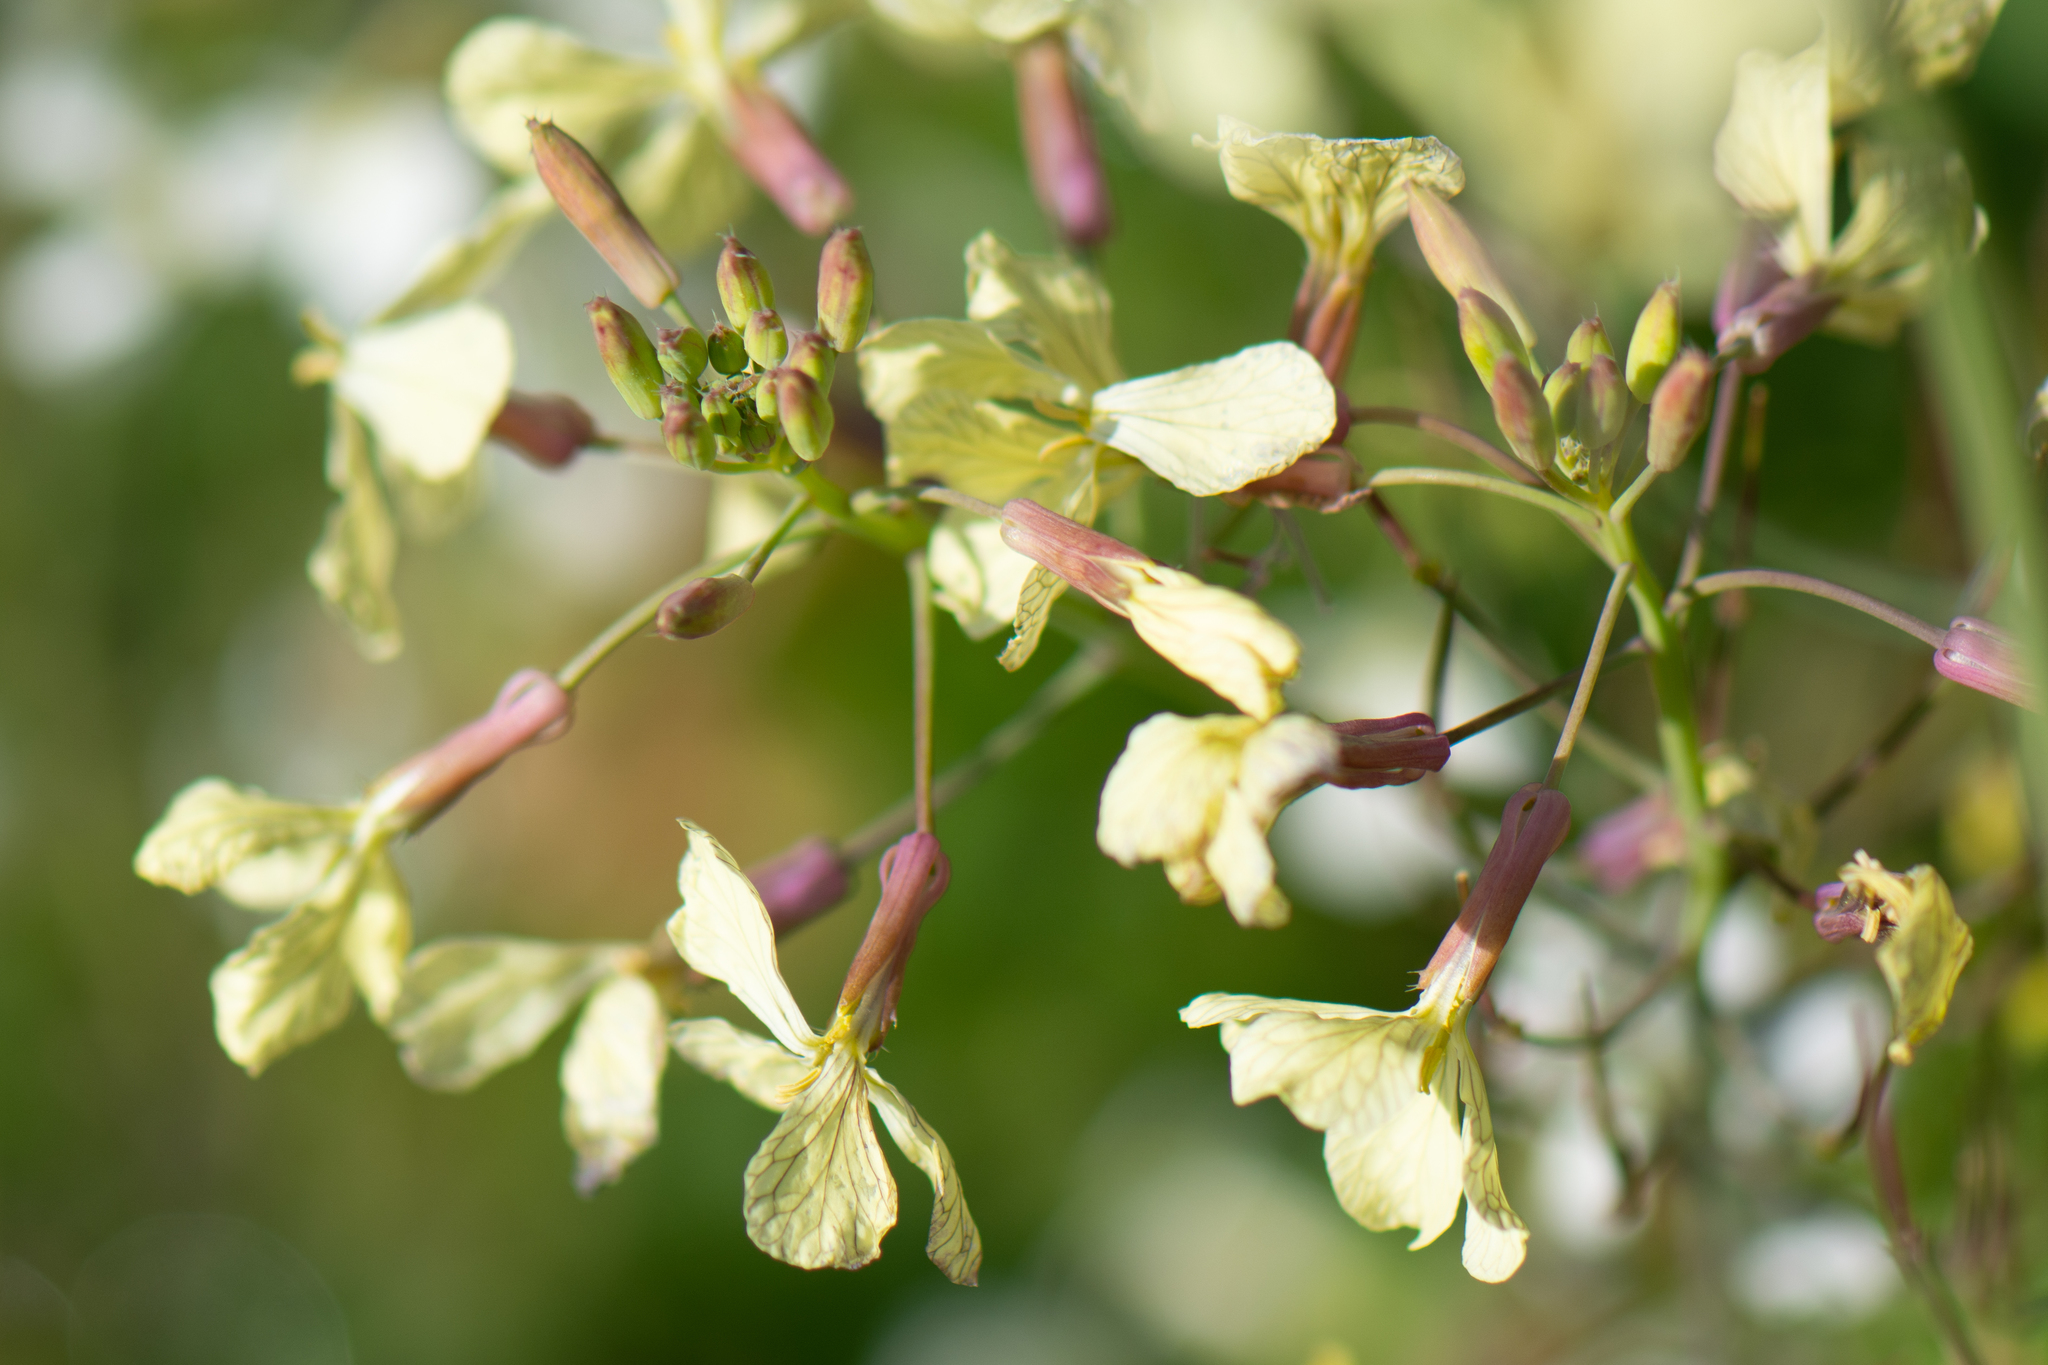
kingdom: Plantae
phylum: Tracheophyta
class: Magnoliopsida
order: Brassicales
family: Brassicaceae
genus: Raphanus
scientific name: Raphanus raphanistrum
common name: Wild radish
